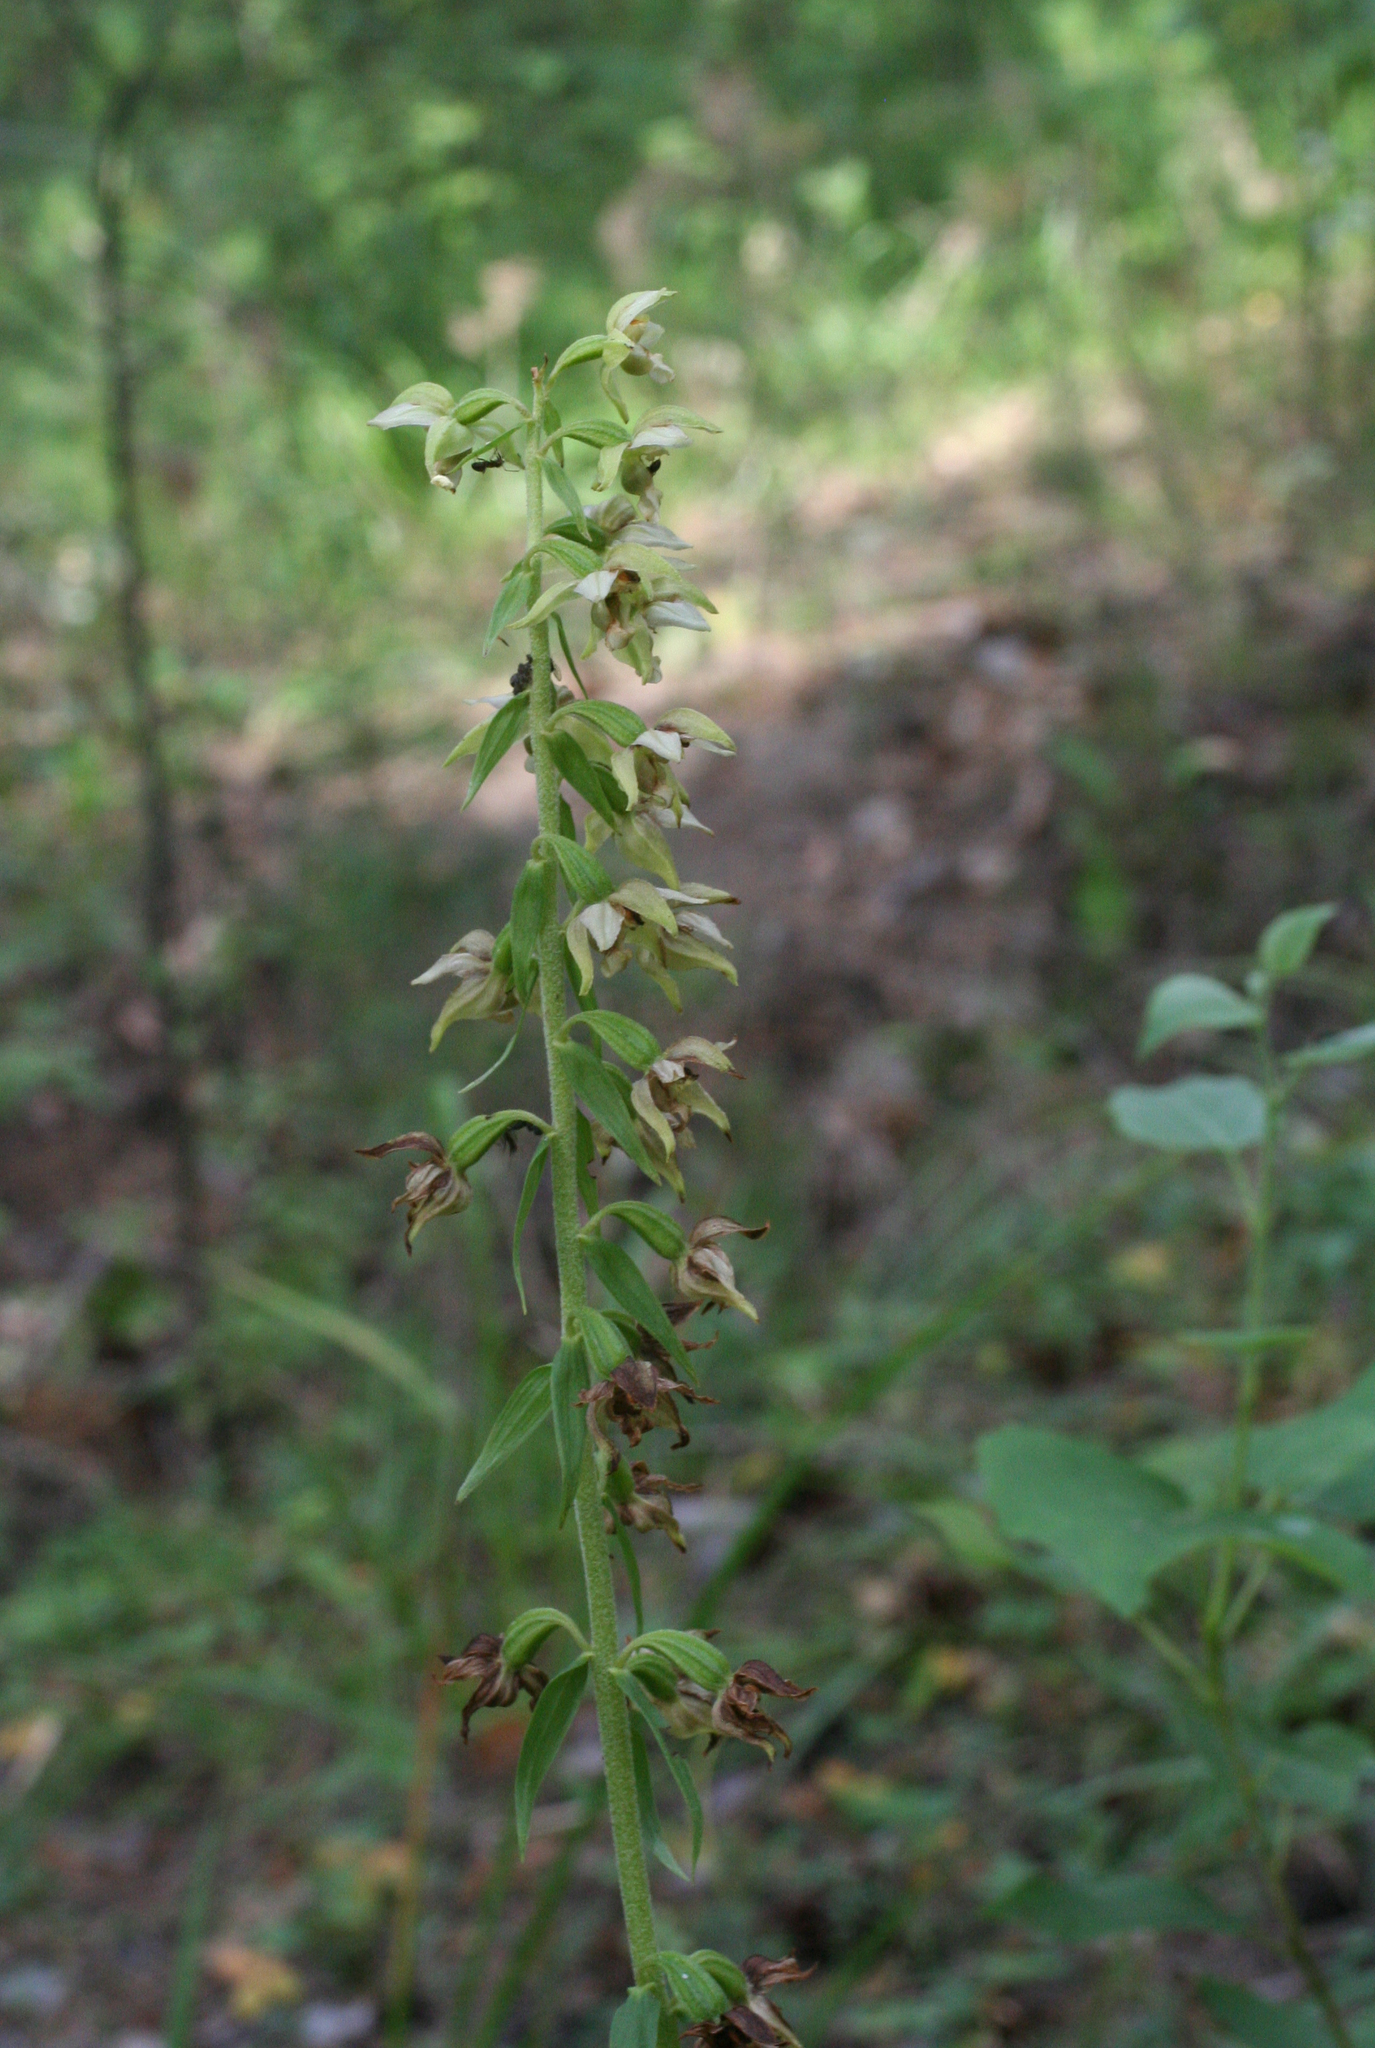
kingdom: Plantae
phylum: Tracheophyta
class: Liliopsida
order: Asparagales
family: Orchidaceae
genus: Epipactis
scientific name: Epipactis helleborine
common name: Broad-leaved helleborine
